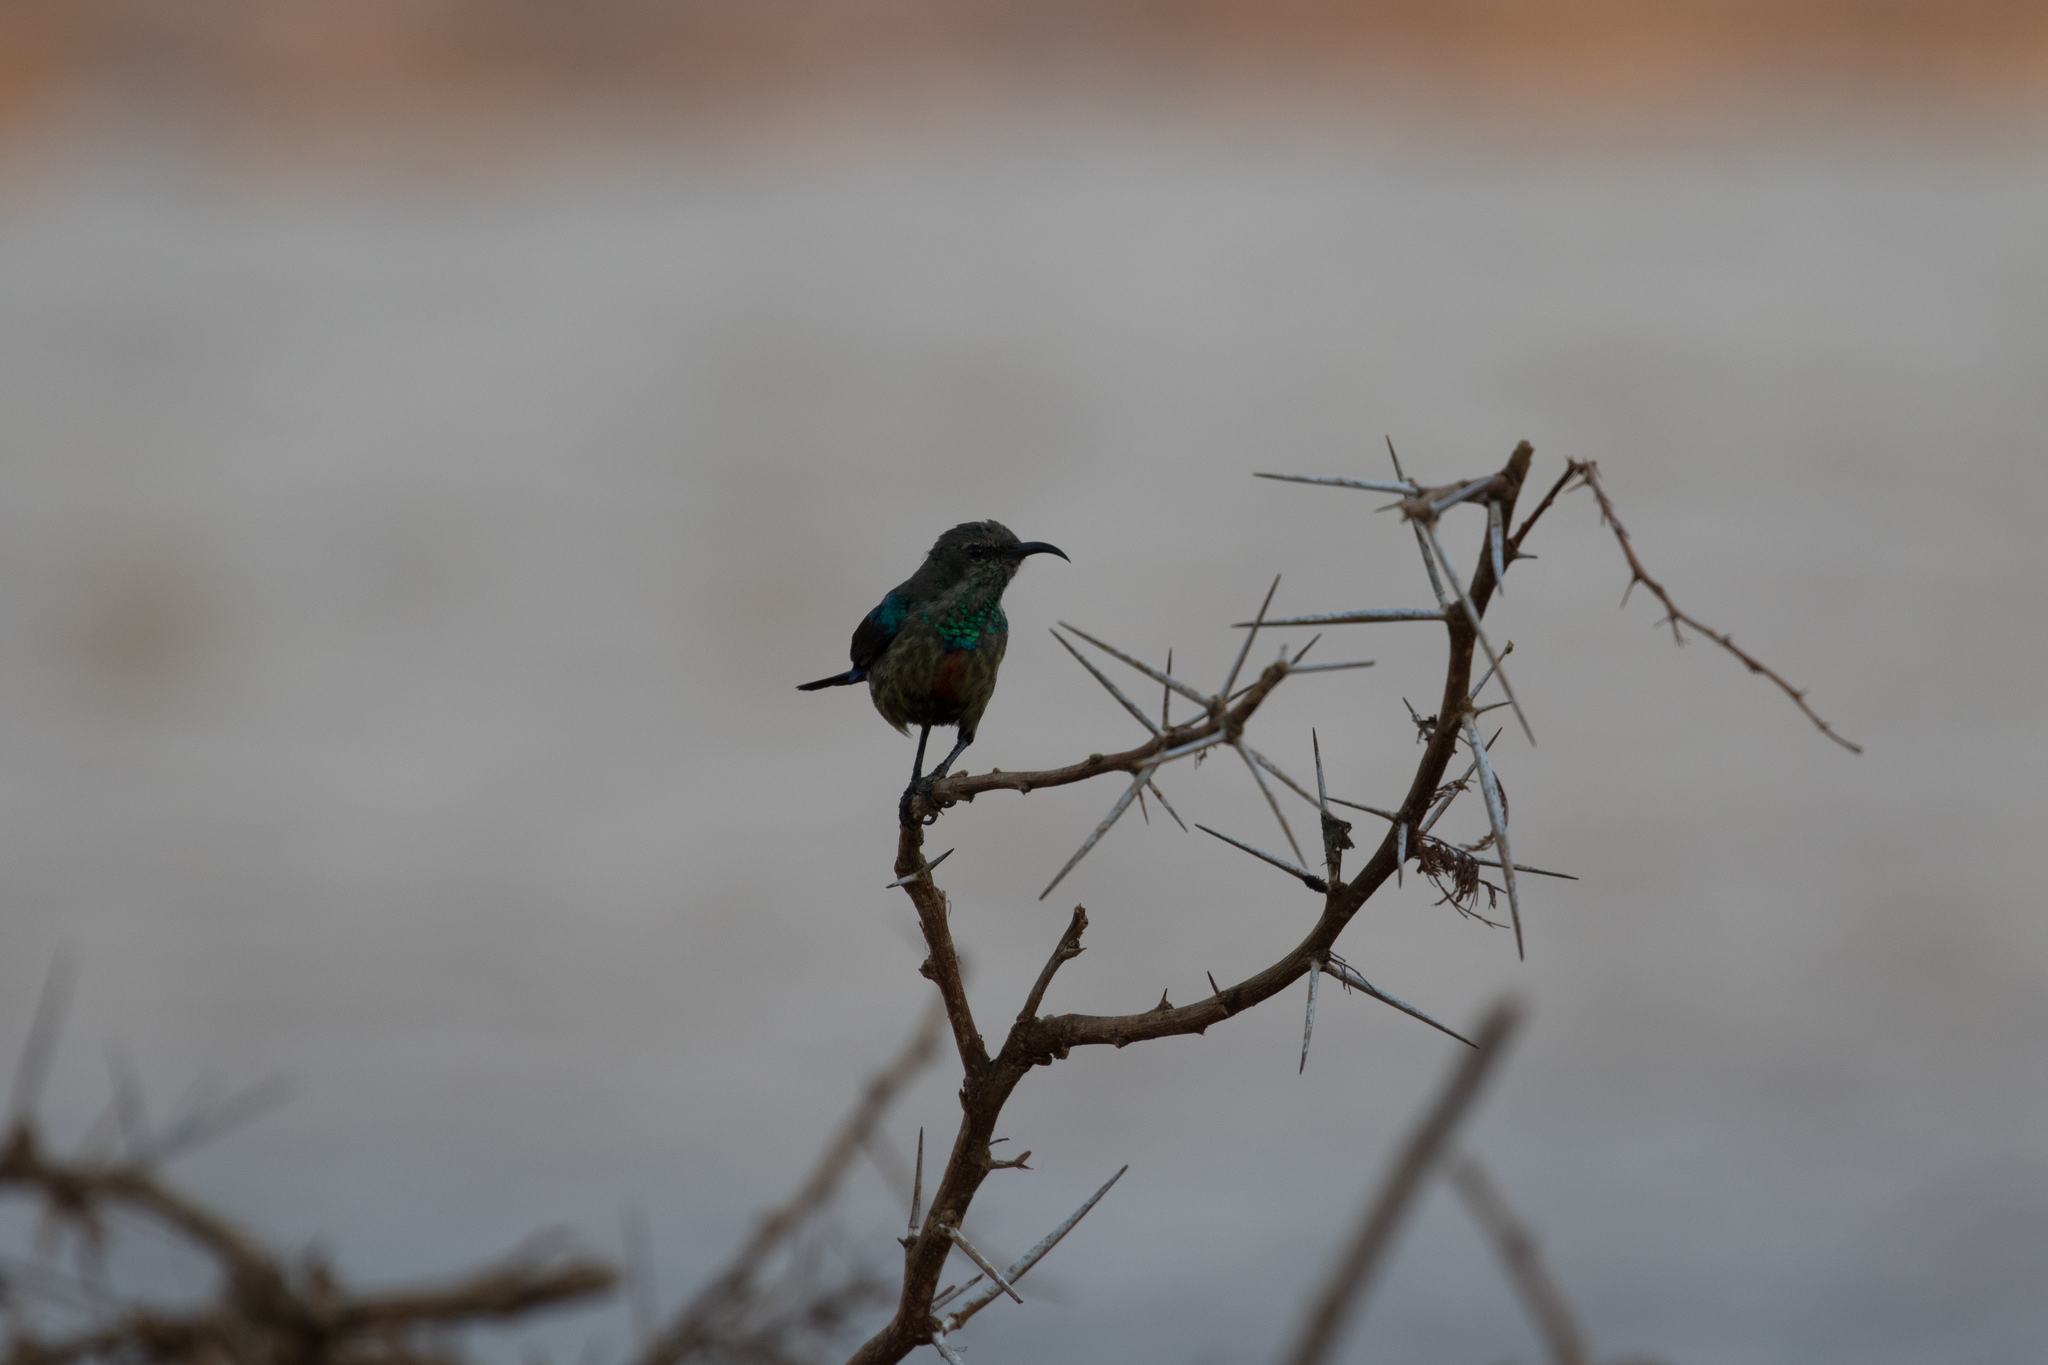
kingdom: Animalia
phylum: Chordata
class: Aves
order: Passeriformes
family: Nectariniidae
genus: Cinnyris
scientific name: Cinnyris pulchellus
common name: Beautiful sunbird
